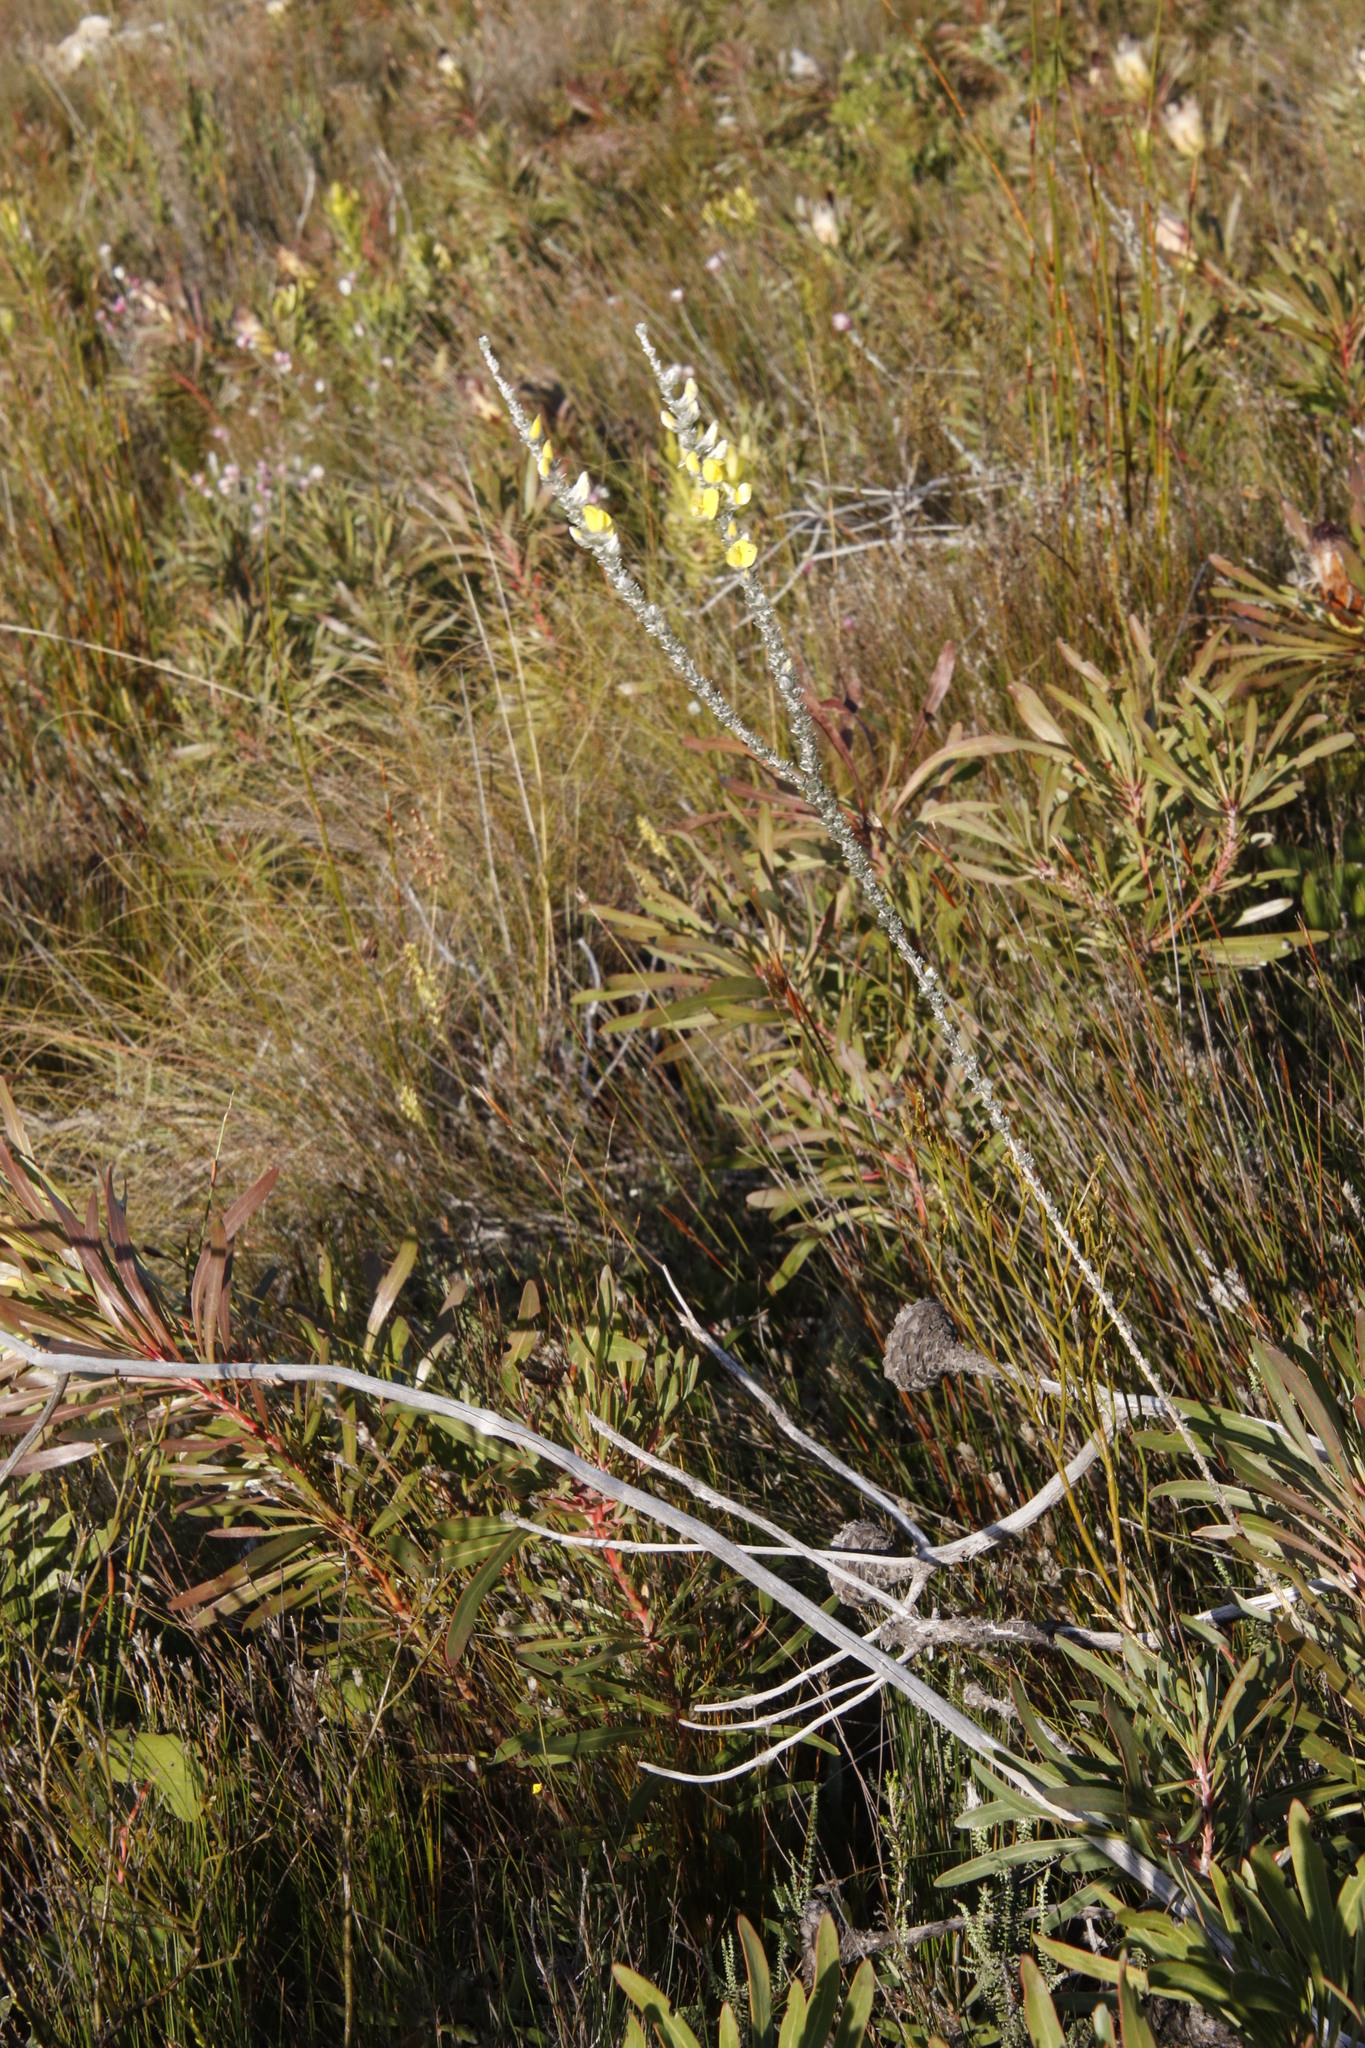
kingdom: Plantae
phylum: Tracheophyta
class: Magnoliopsida
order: Fabales
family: Fabaceae
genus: Aspalathus
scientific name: Aspalathus caledonensis
